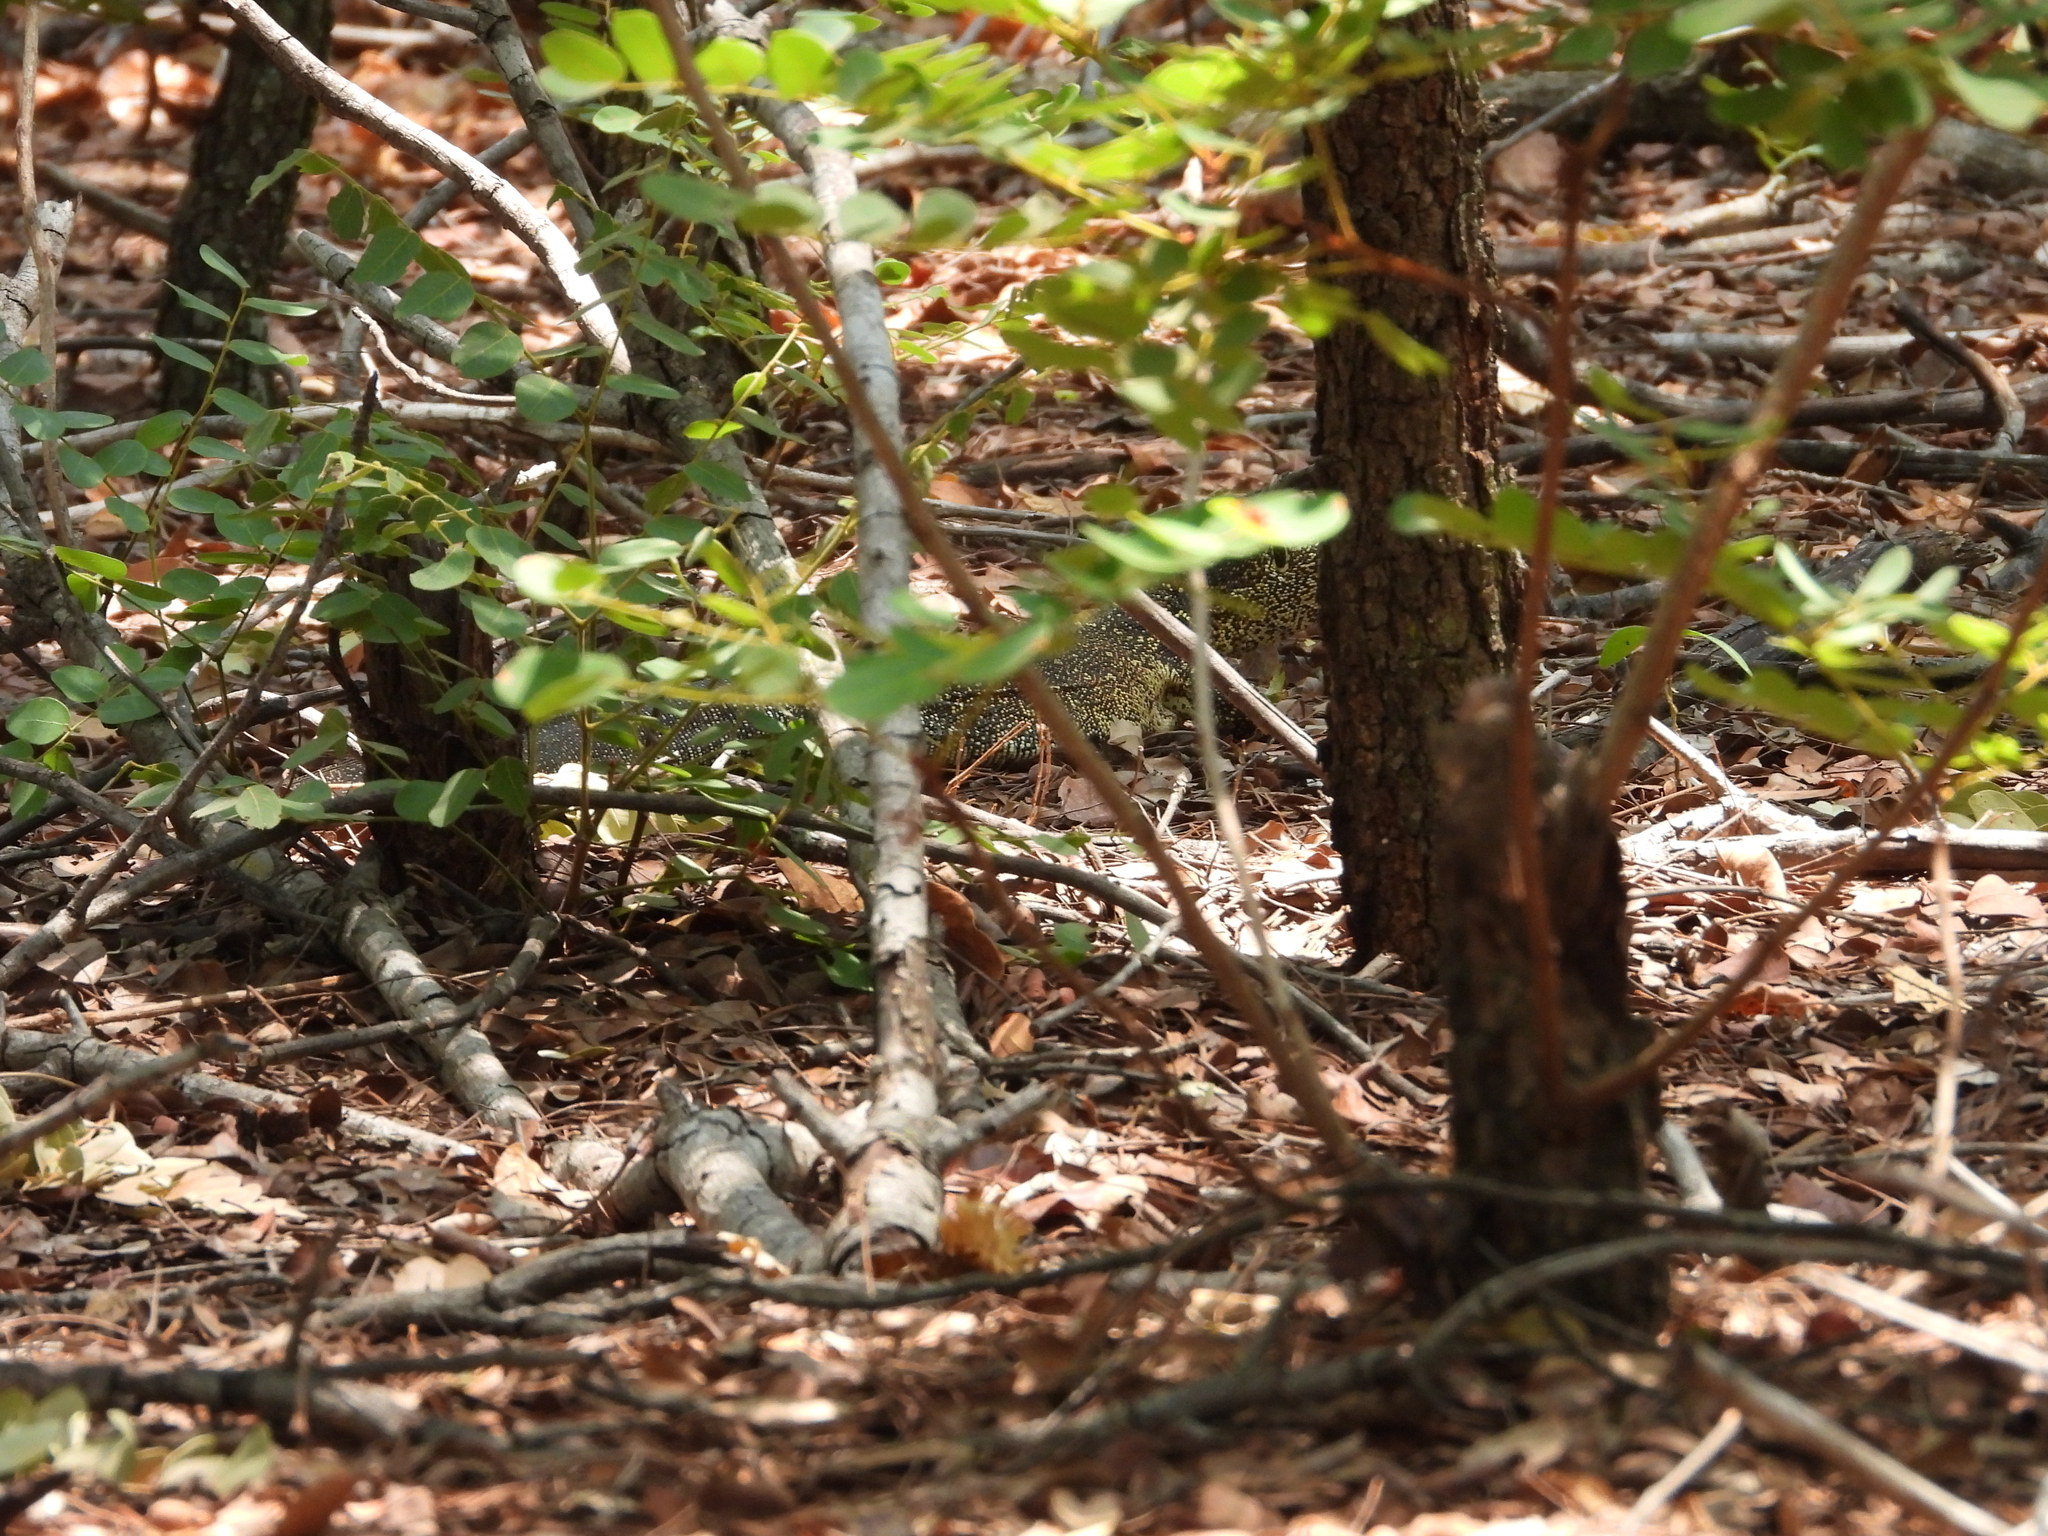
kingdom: Animalia
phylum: Chordata
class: Squamata
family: Varanidae
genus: Varanus
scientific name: Varanus niloticus
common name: Nile monitor
